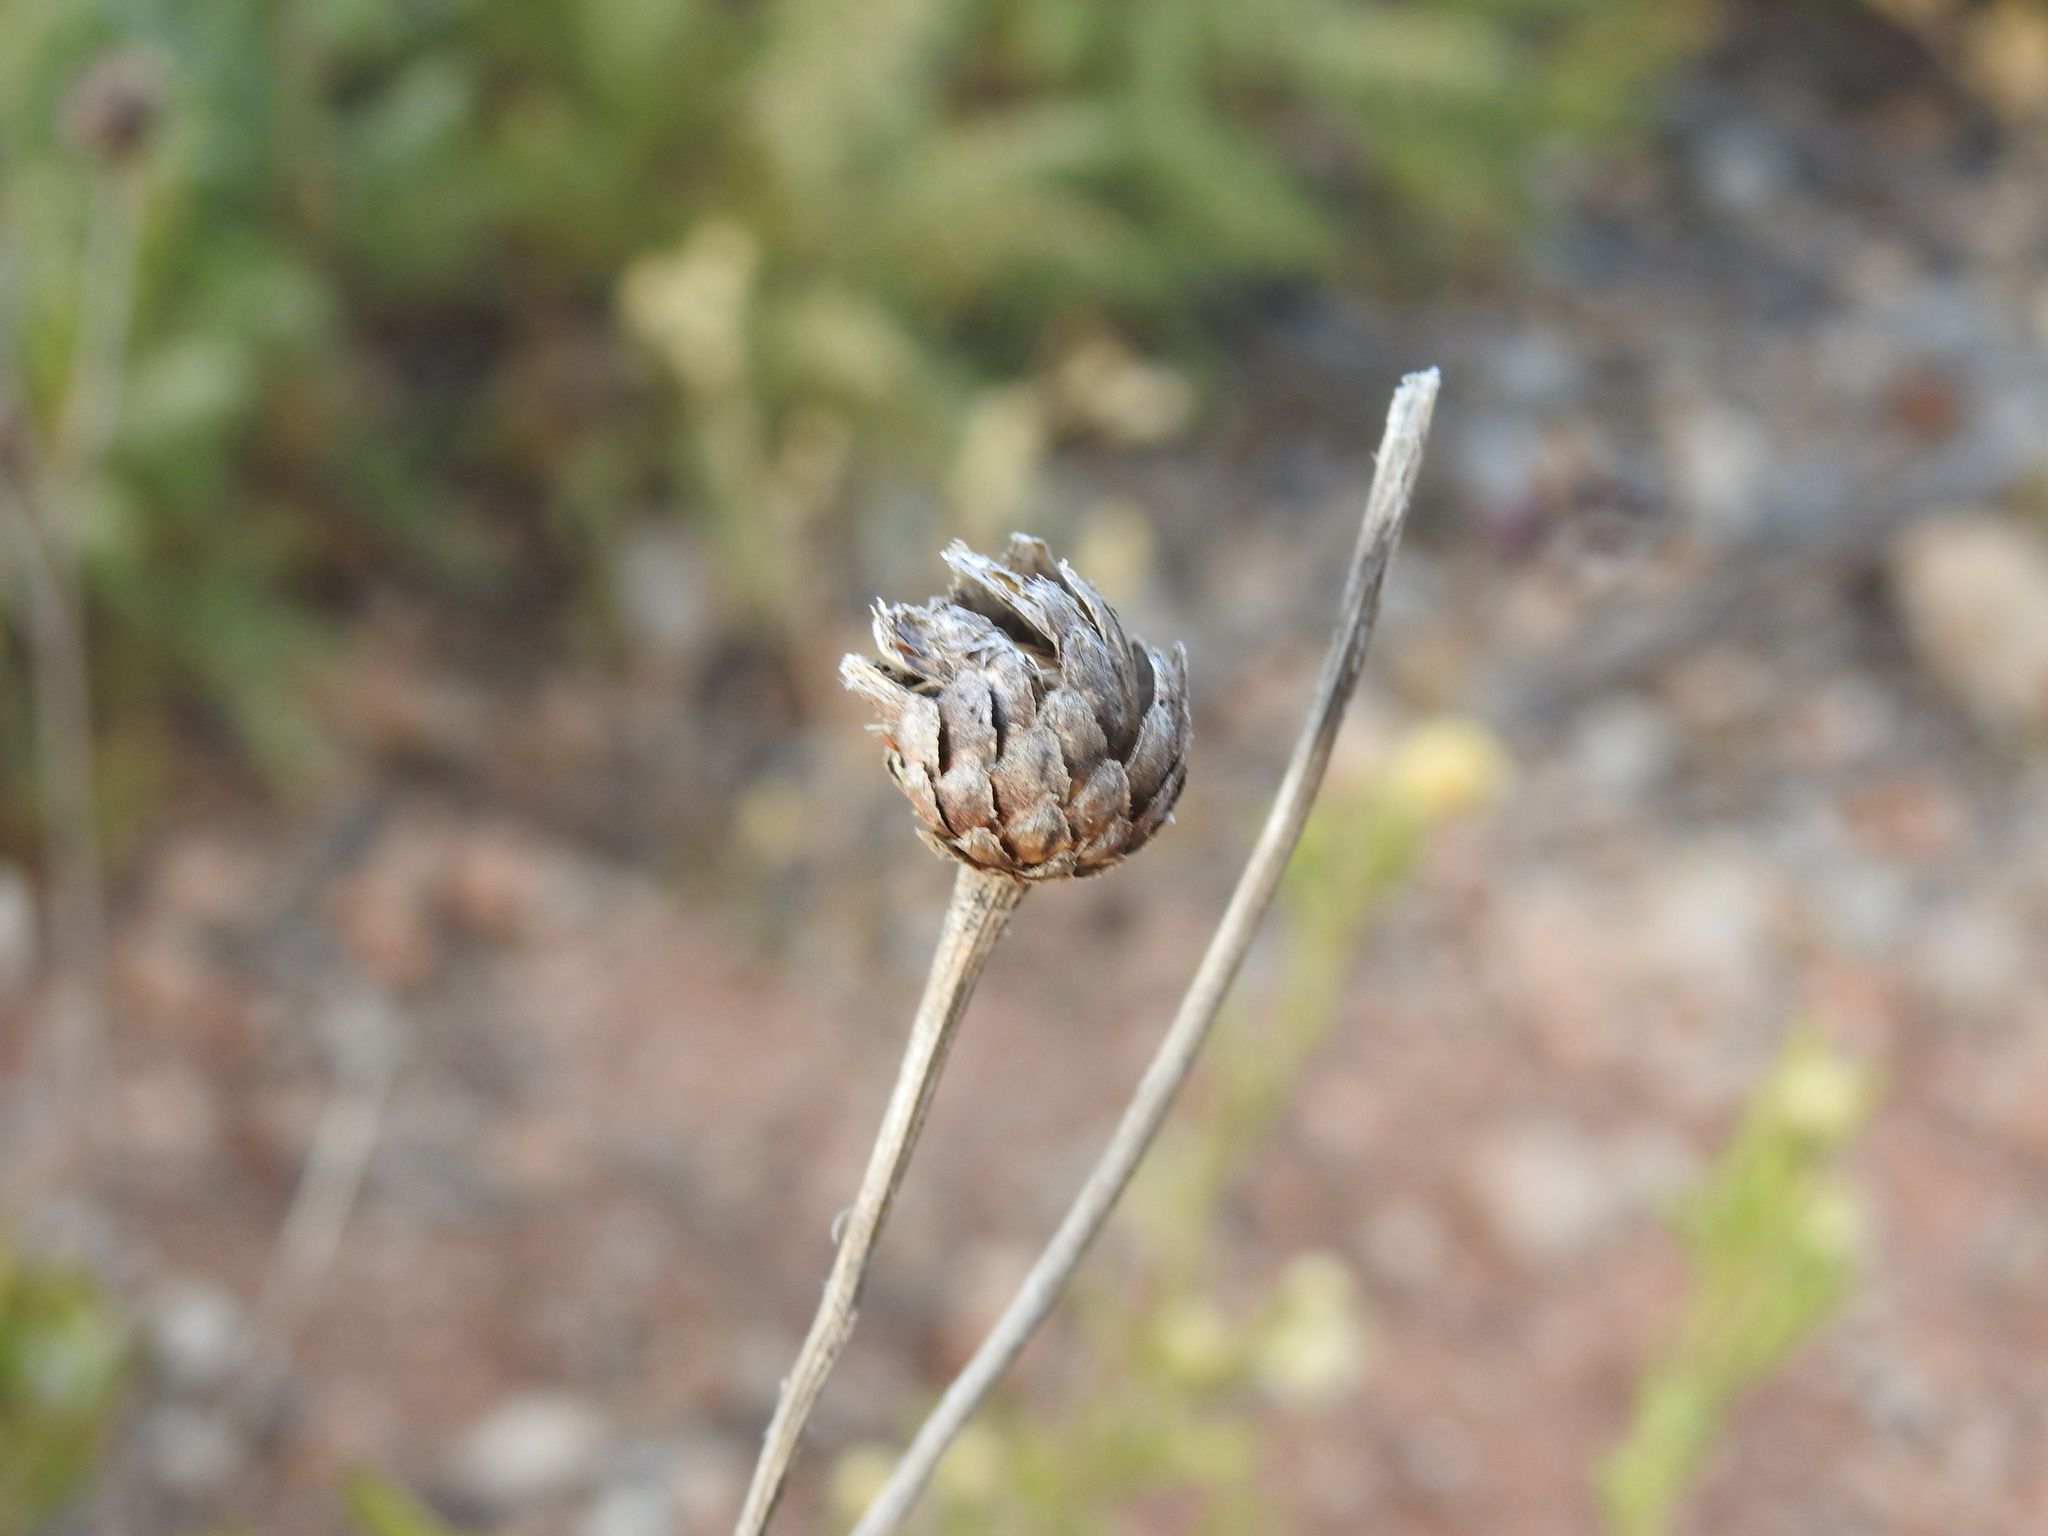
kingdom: Plantae
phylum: Tracheophyta
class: Magnoliopsida
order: Asterales
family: Asteraceae
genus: Cheirolophus
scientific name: Cheirolophus sempervirens
